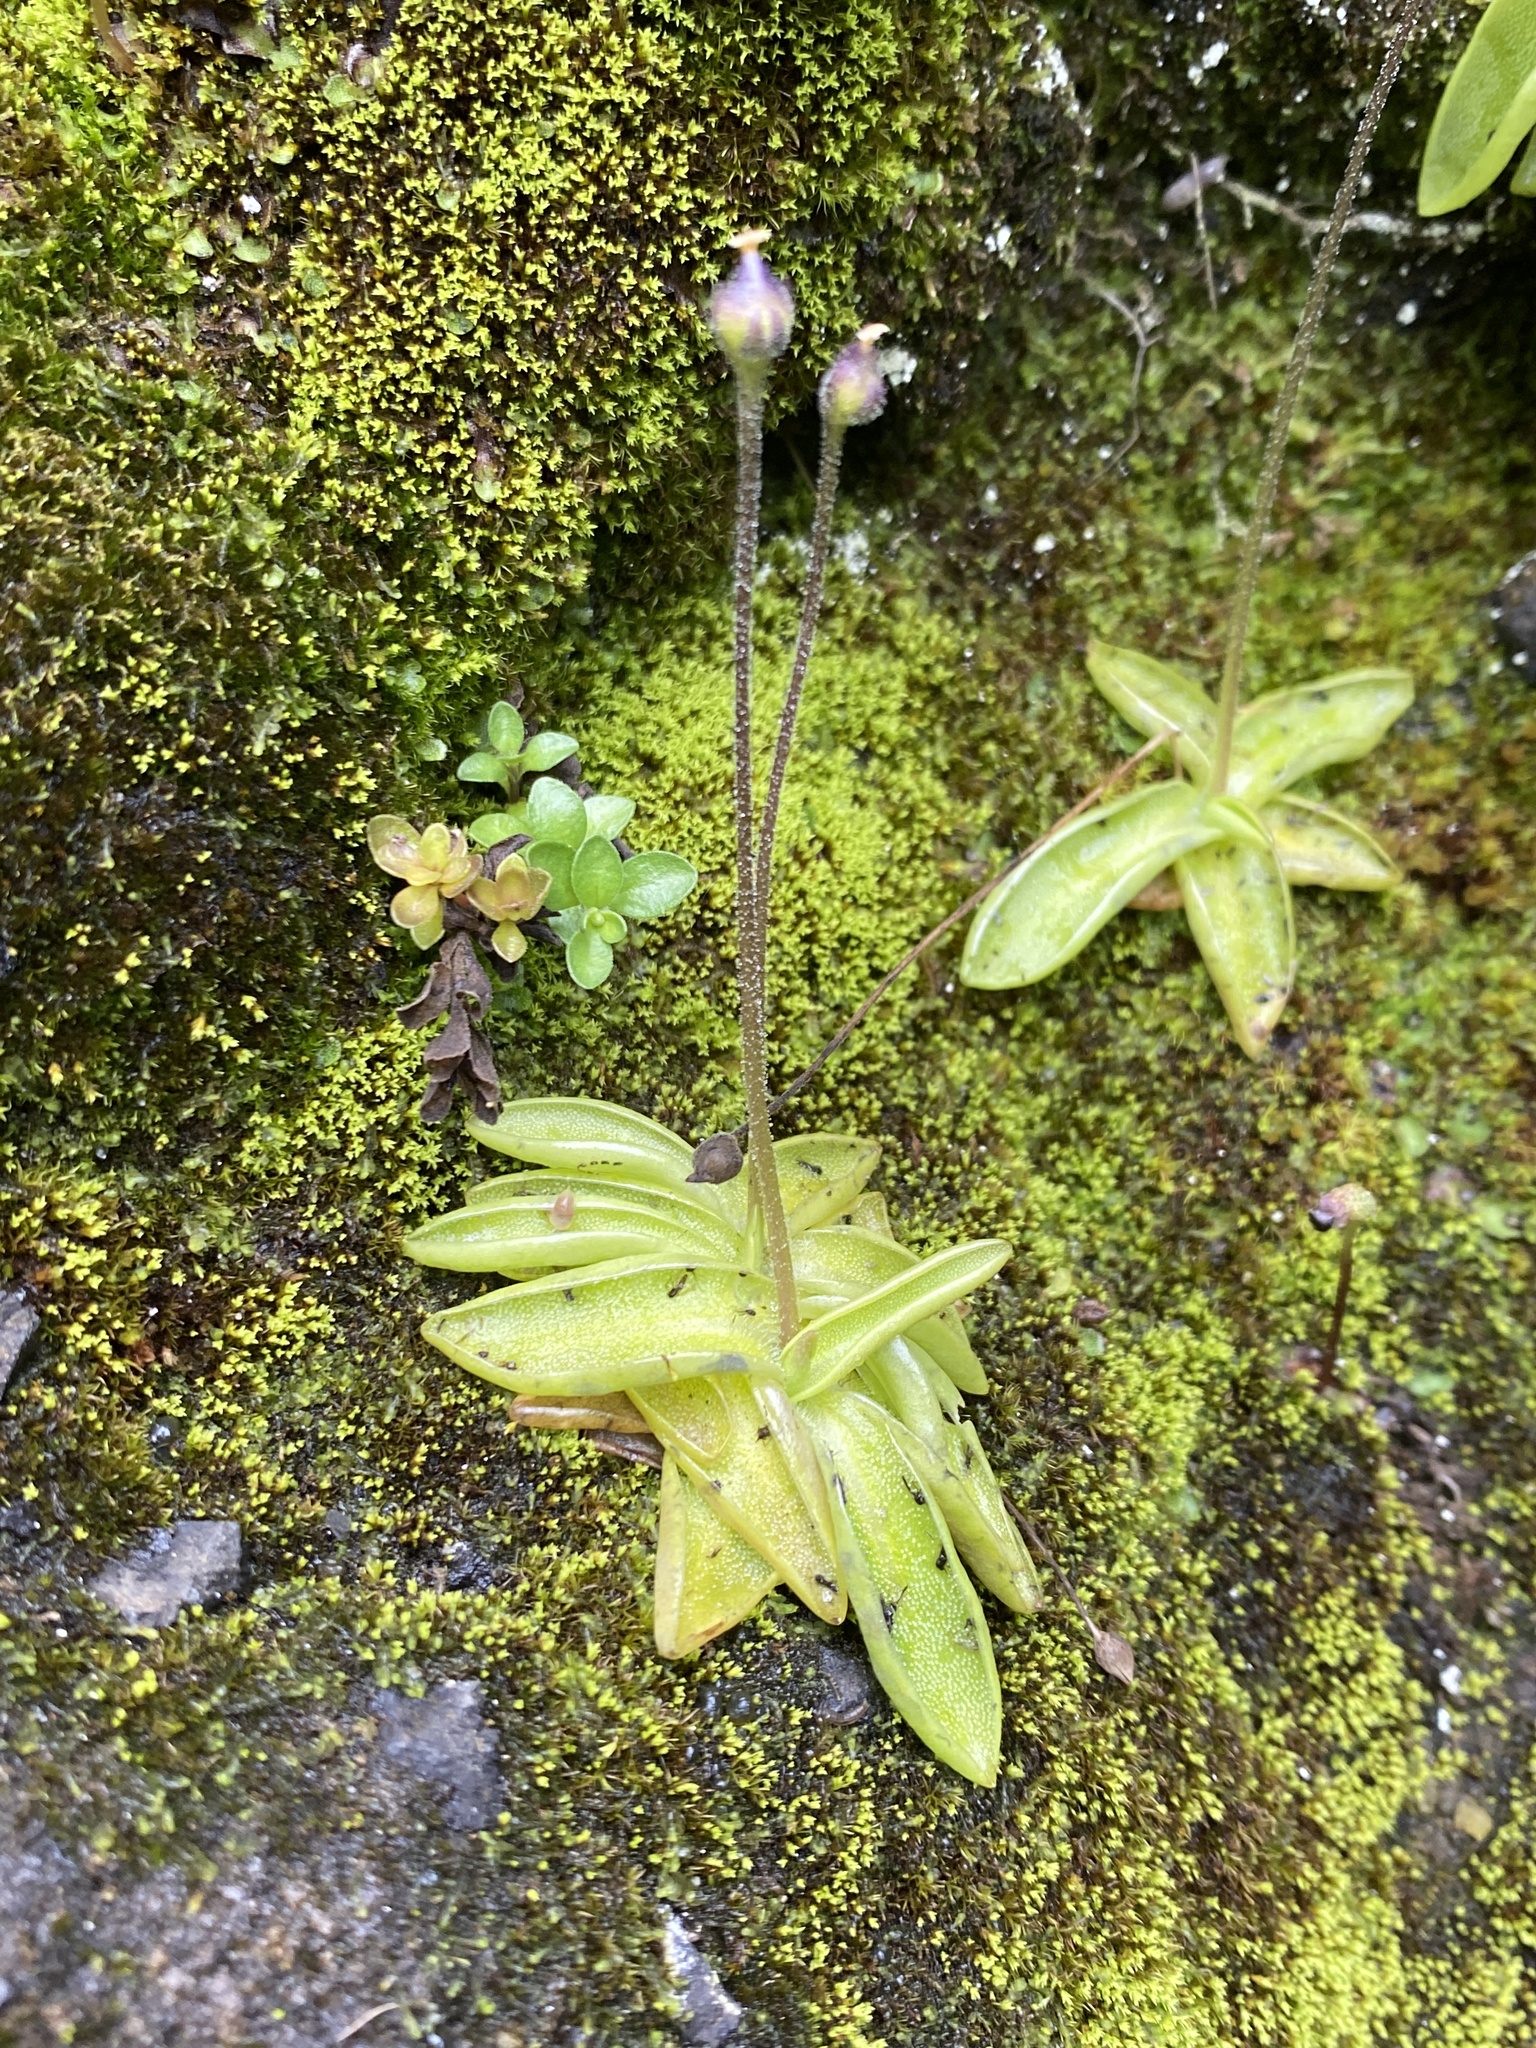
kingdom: Plantae
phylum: Tracheophyta
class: Magnoliopsida
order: Lamiales
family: Lentibulariaceae
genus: Pinguicula
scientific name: Pinguicula vulgaris
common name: Common butterwort
